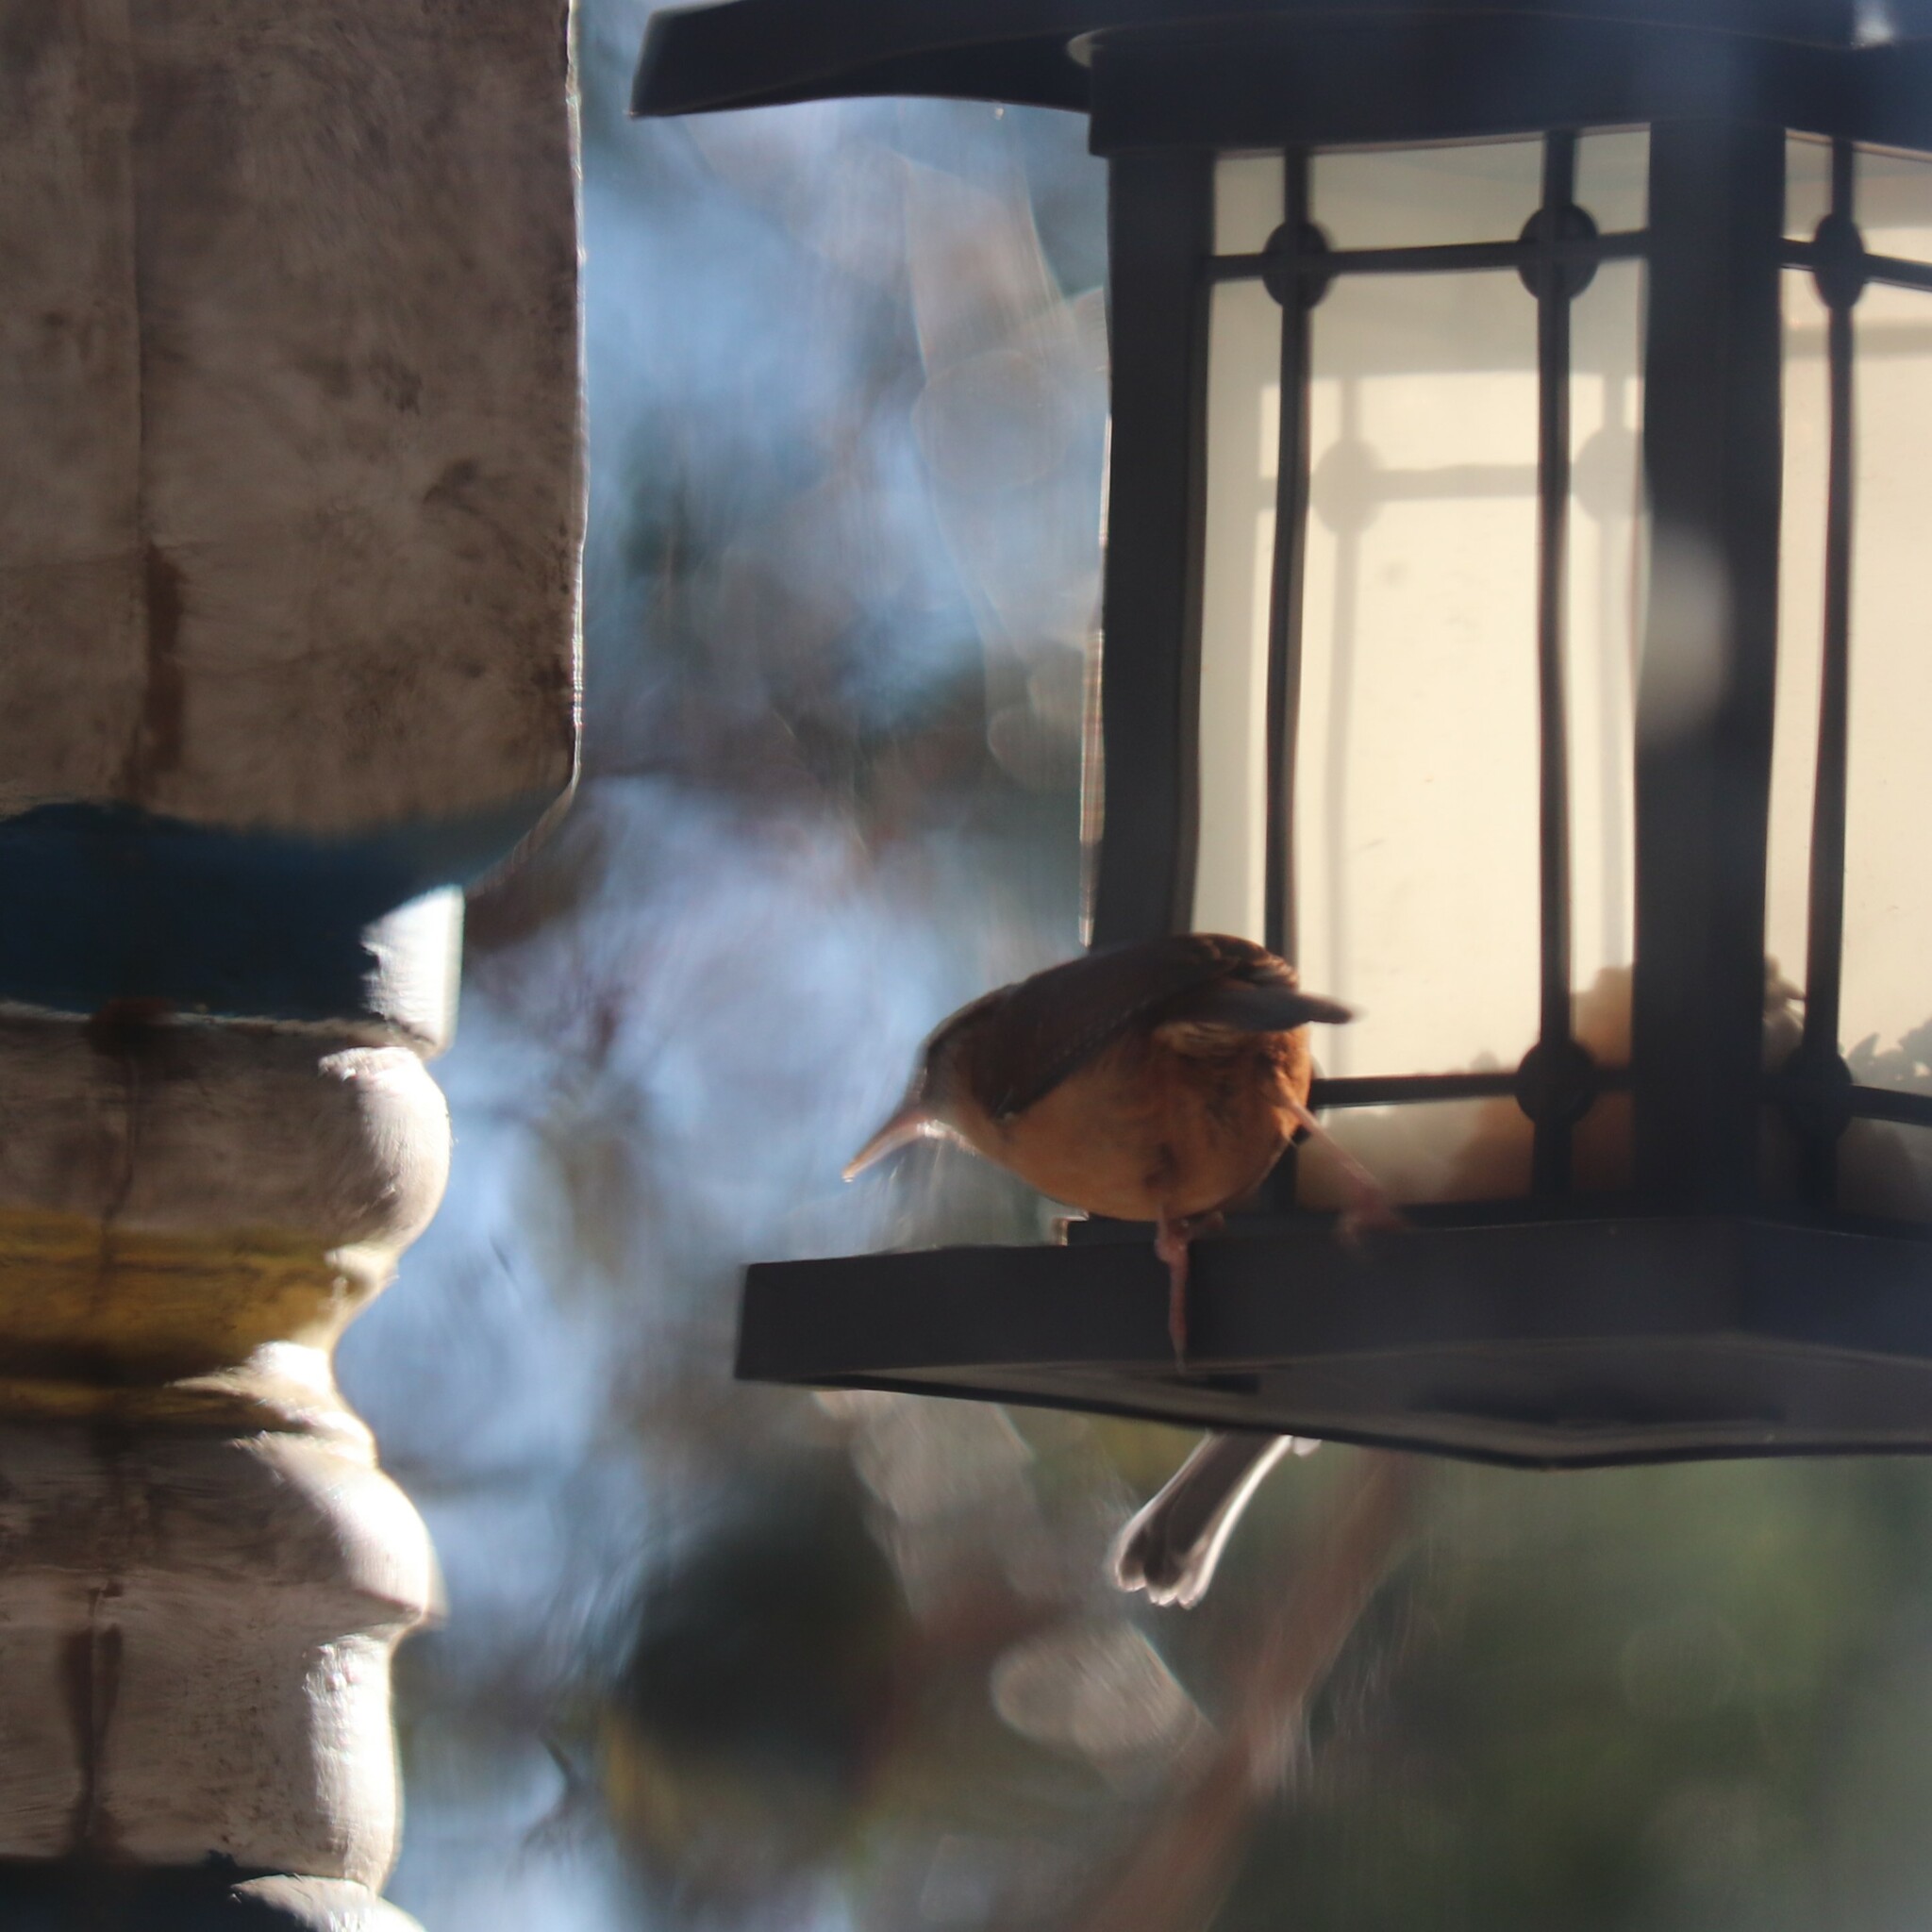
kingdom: Animalia
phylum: Chordata
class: Aves
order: Passeriformes
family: Troglodytidae
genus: Thryothorus
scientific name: Thryothorus ludovicianus
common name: Carolina wren
